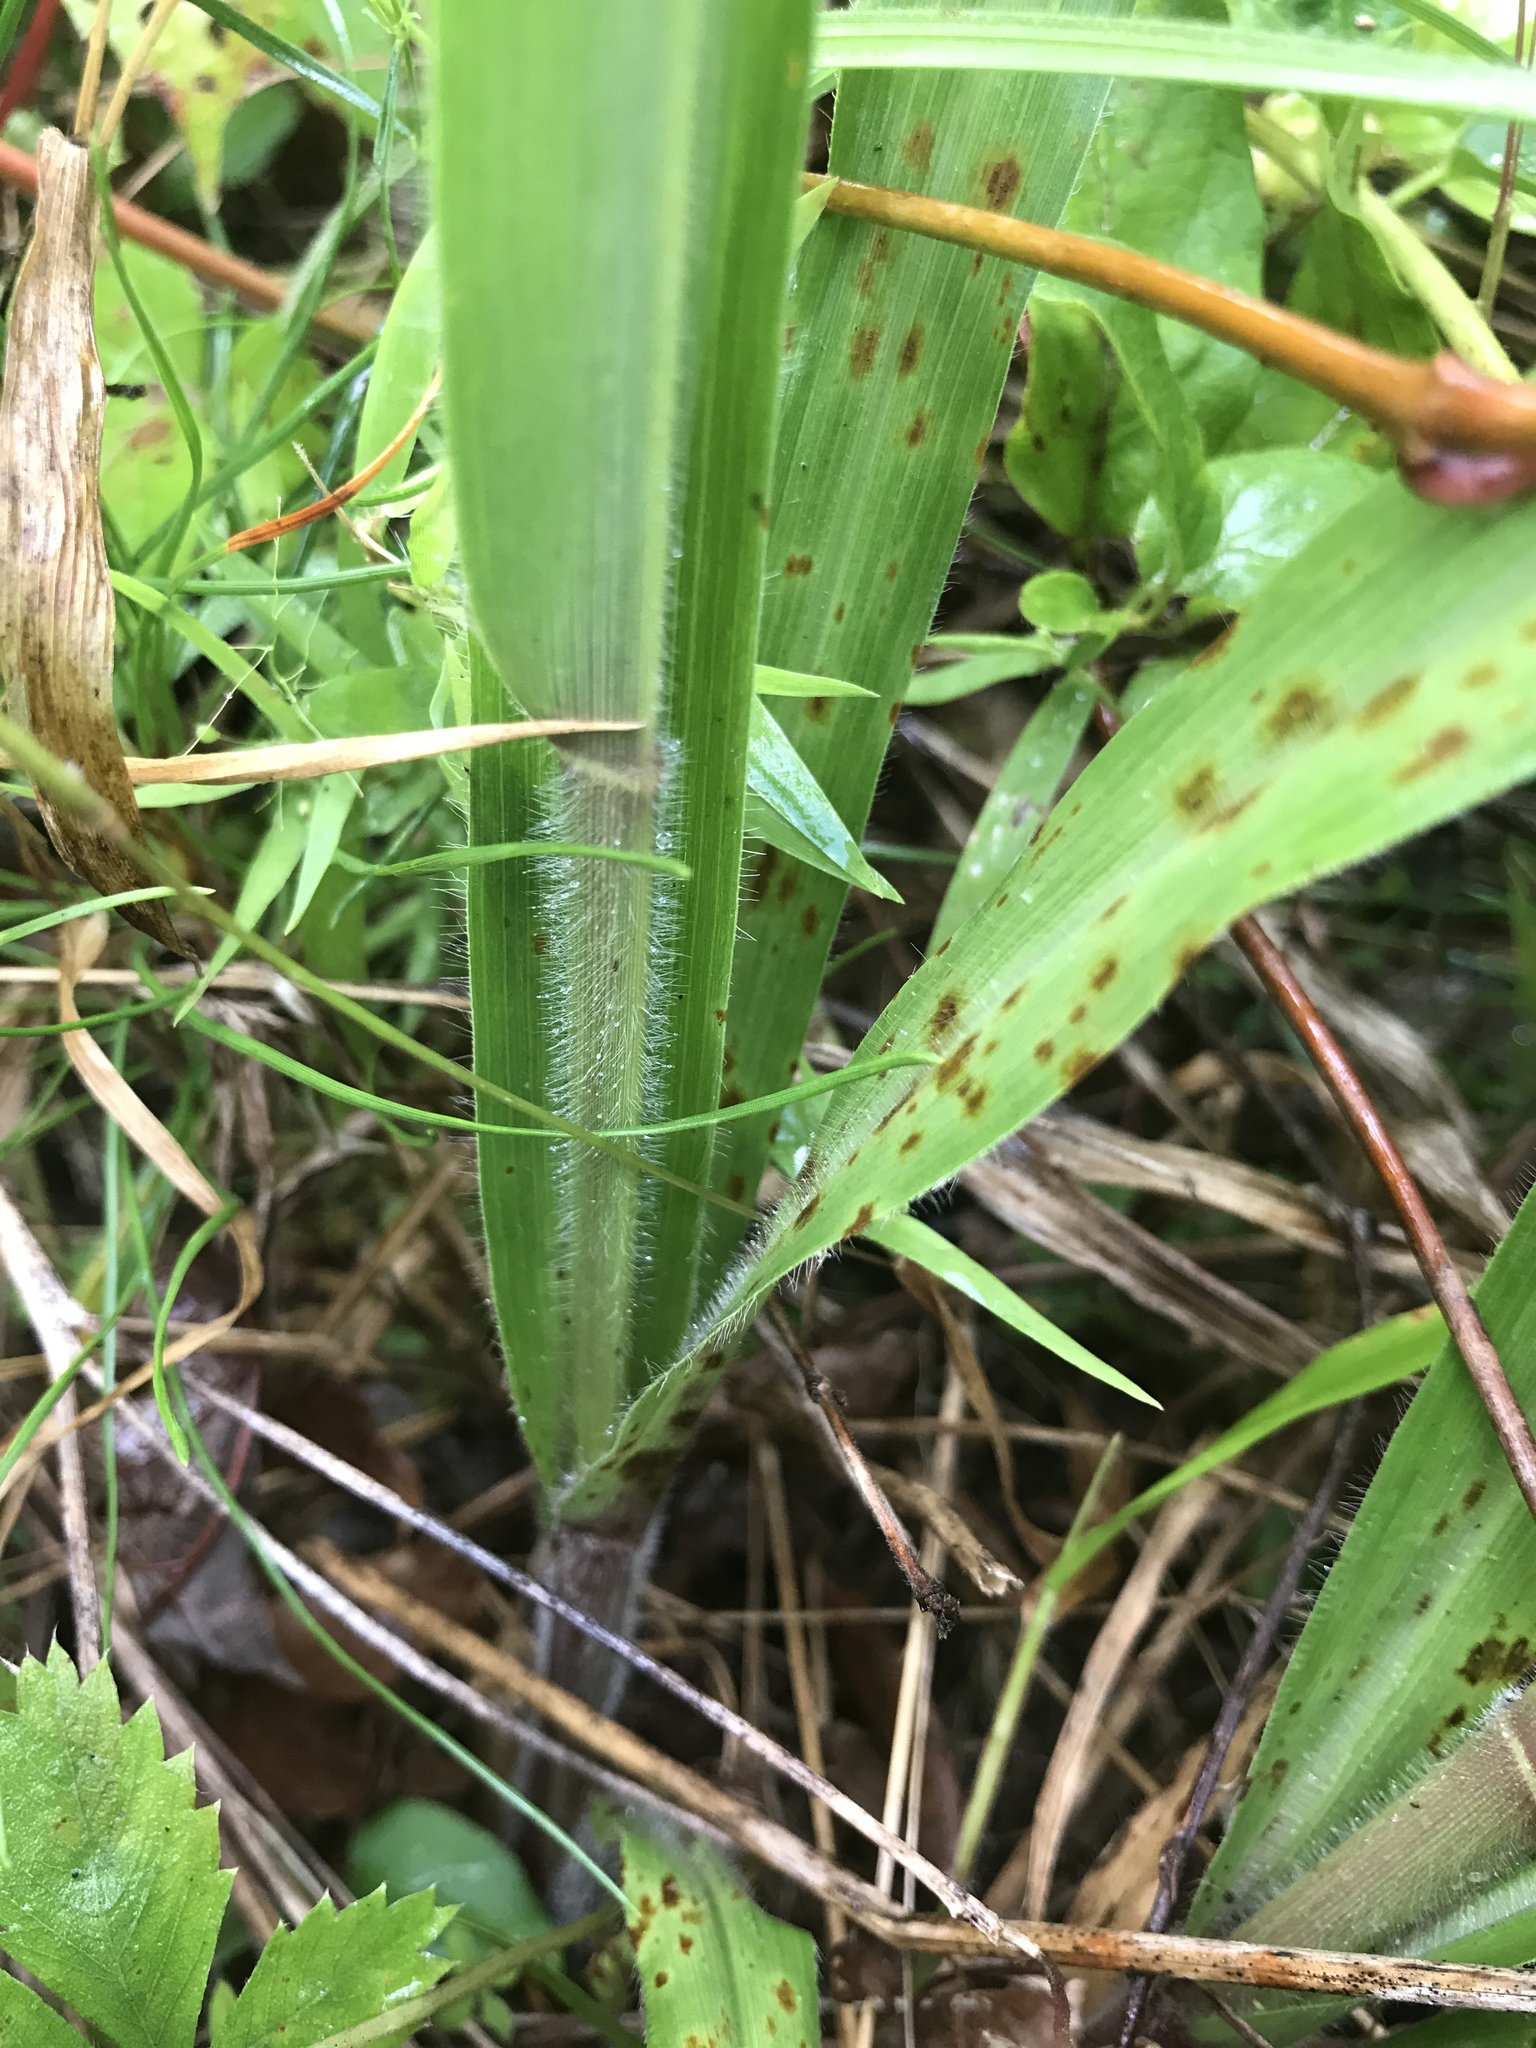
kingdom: Plantae
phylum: Tracheophyta
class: Liliopsida
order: Poales
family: Poaceae
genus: Coleataenia
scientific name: Coleataenia anceps
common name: Beaked panic grass
